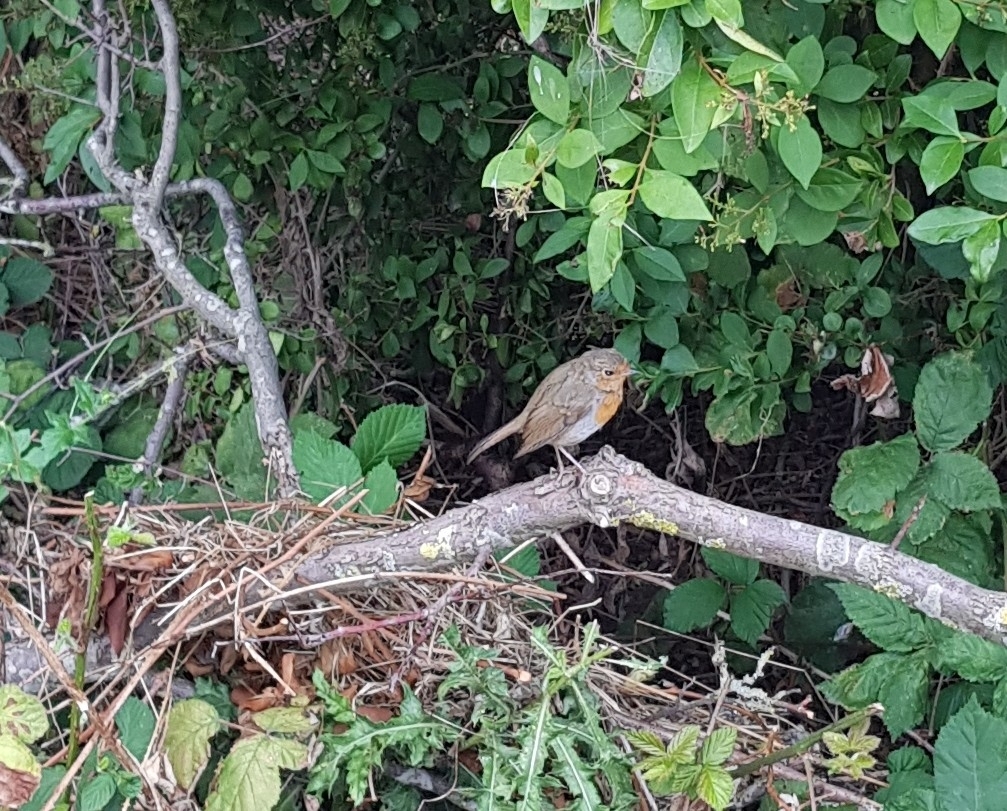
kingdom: Animalia
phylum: Chordata
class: Aves
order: Passeriformes
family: Muscicapidae
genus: Erithacus
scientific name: Erithacus rubecula
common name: European robin
